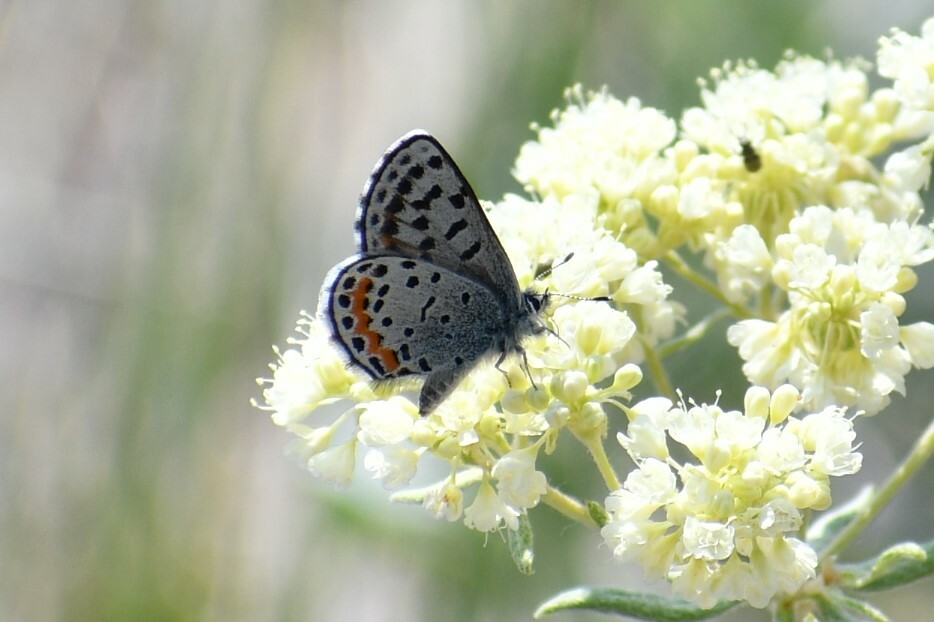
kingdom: Animalia
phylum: Arthropoda
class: Insecta
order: Lepidoptera
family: Lycaenidae
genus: Euphilotes
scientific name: Euphilotes
